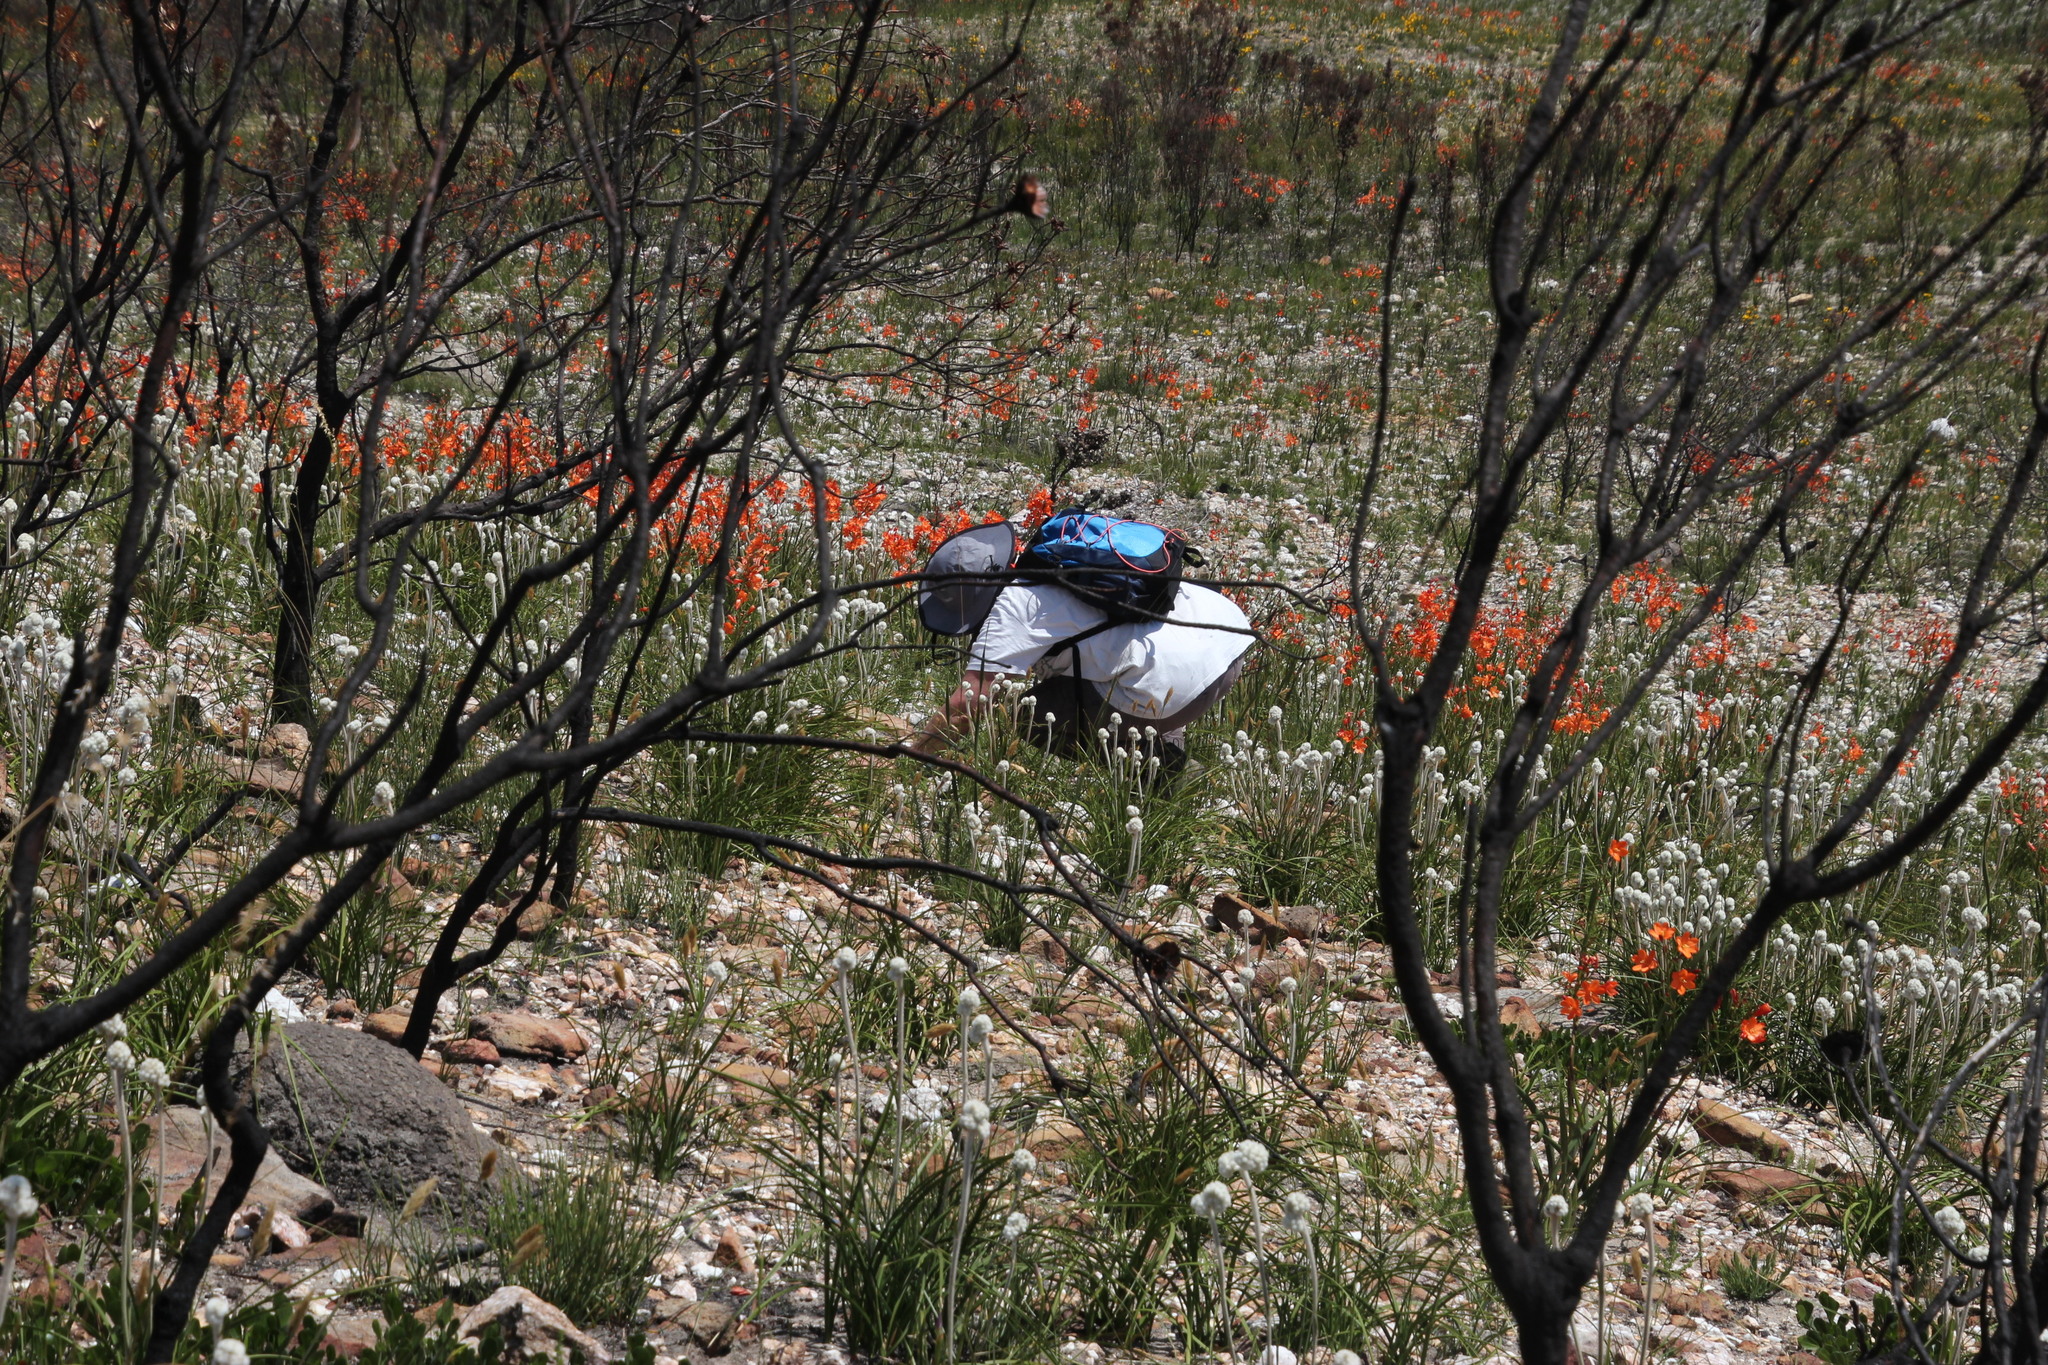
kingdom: Plantae
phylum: Tracheophyta
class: Liliopsida
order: Asparagales
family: Iridaceae
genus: Pillansia
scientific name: Pillansia templemannii
